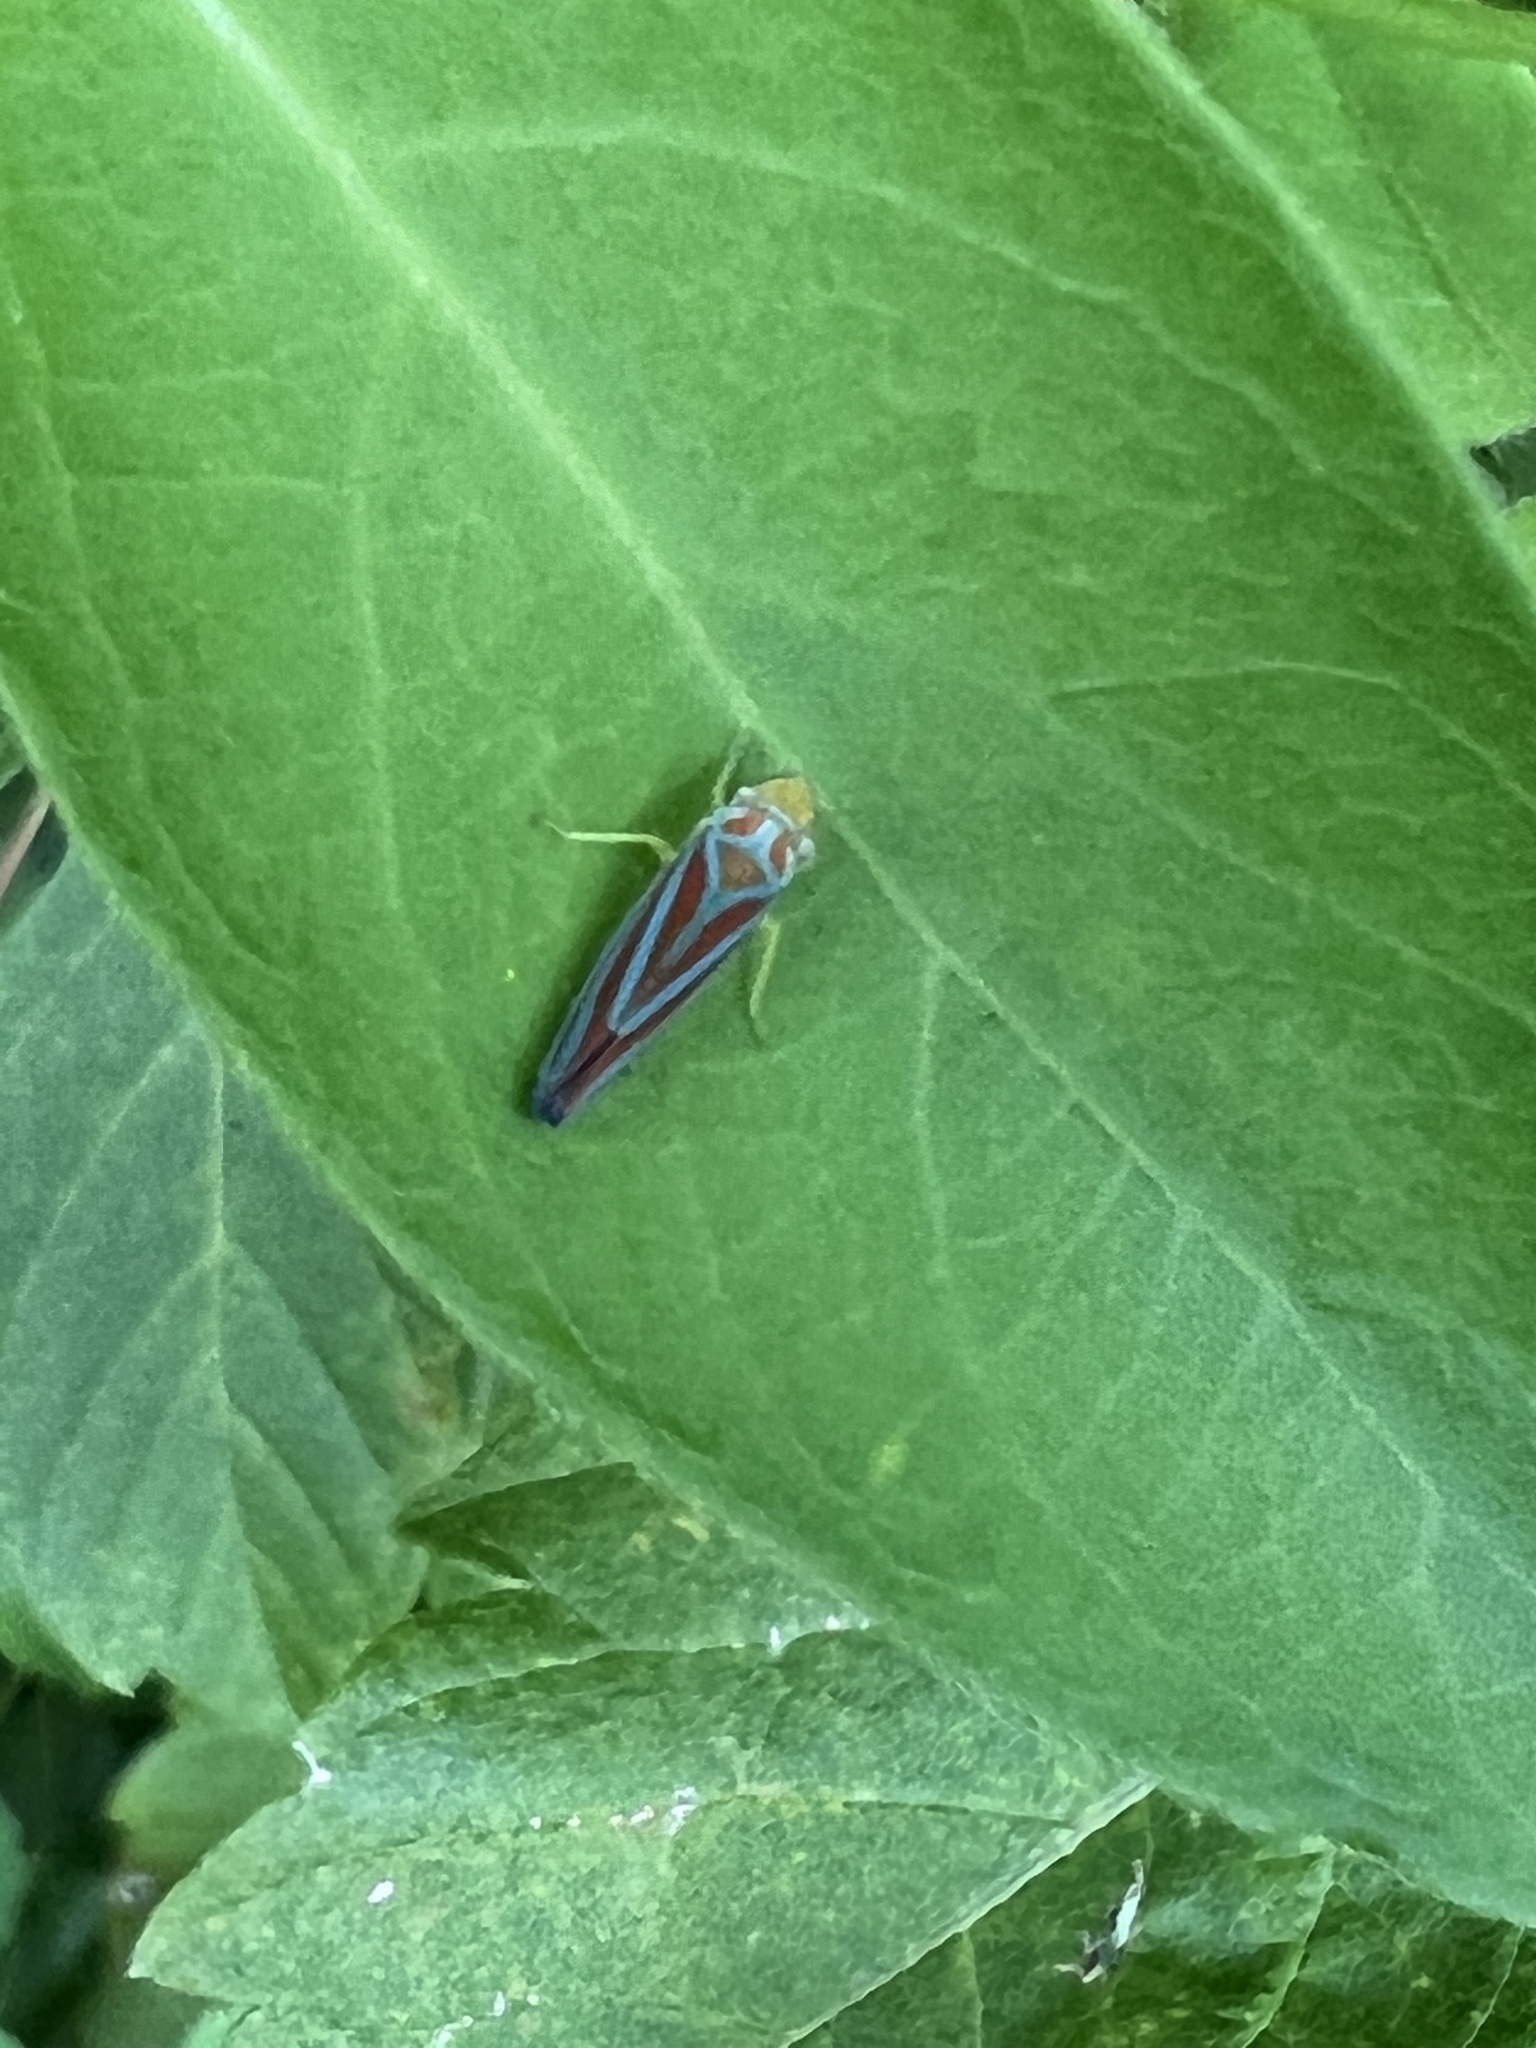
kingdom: Animalia
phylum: Arthropoda
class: Insecta
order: Hemiptera
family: Cicadellidae
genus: Graphocephala
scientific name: Graphocephala coccinea
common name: Candy-striped leafhopper
